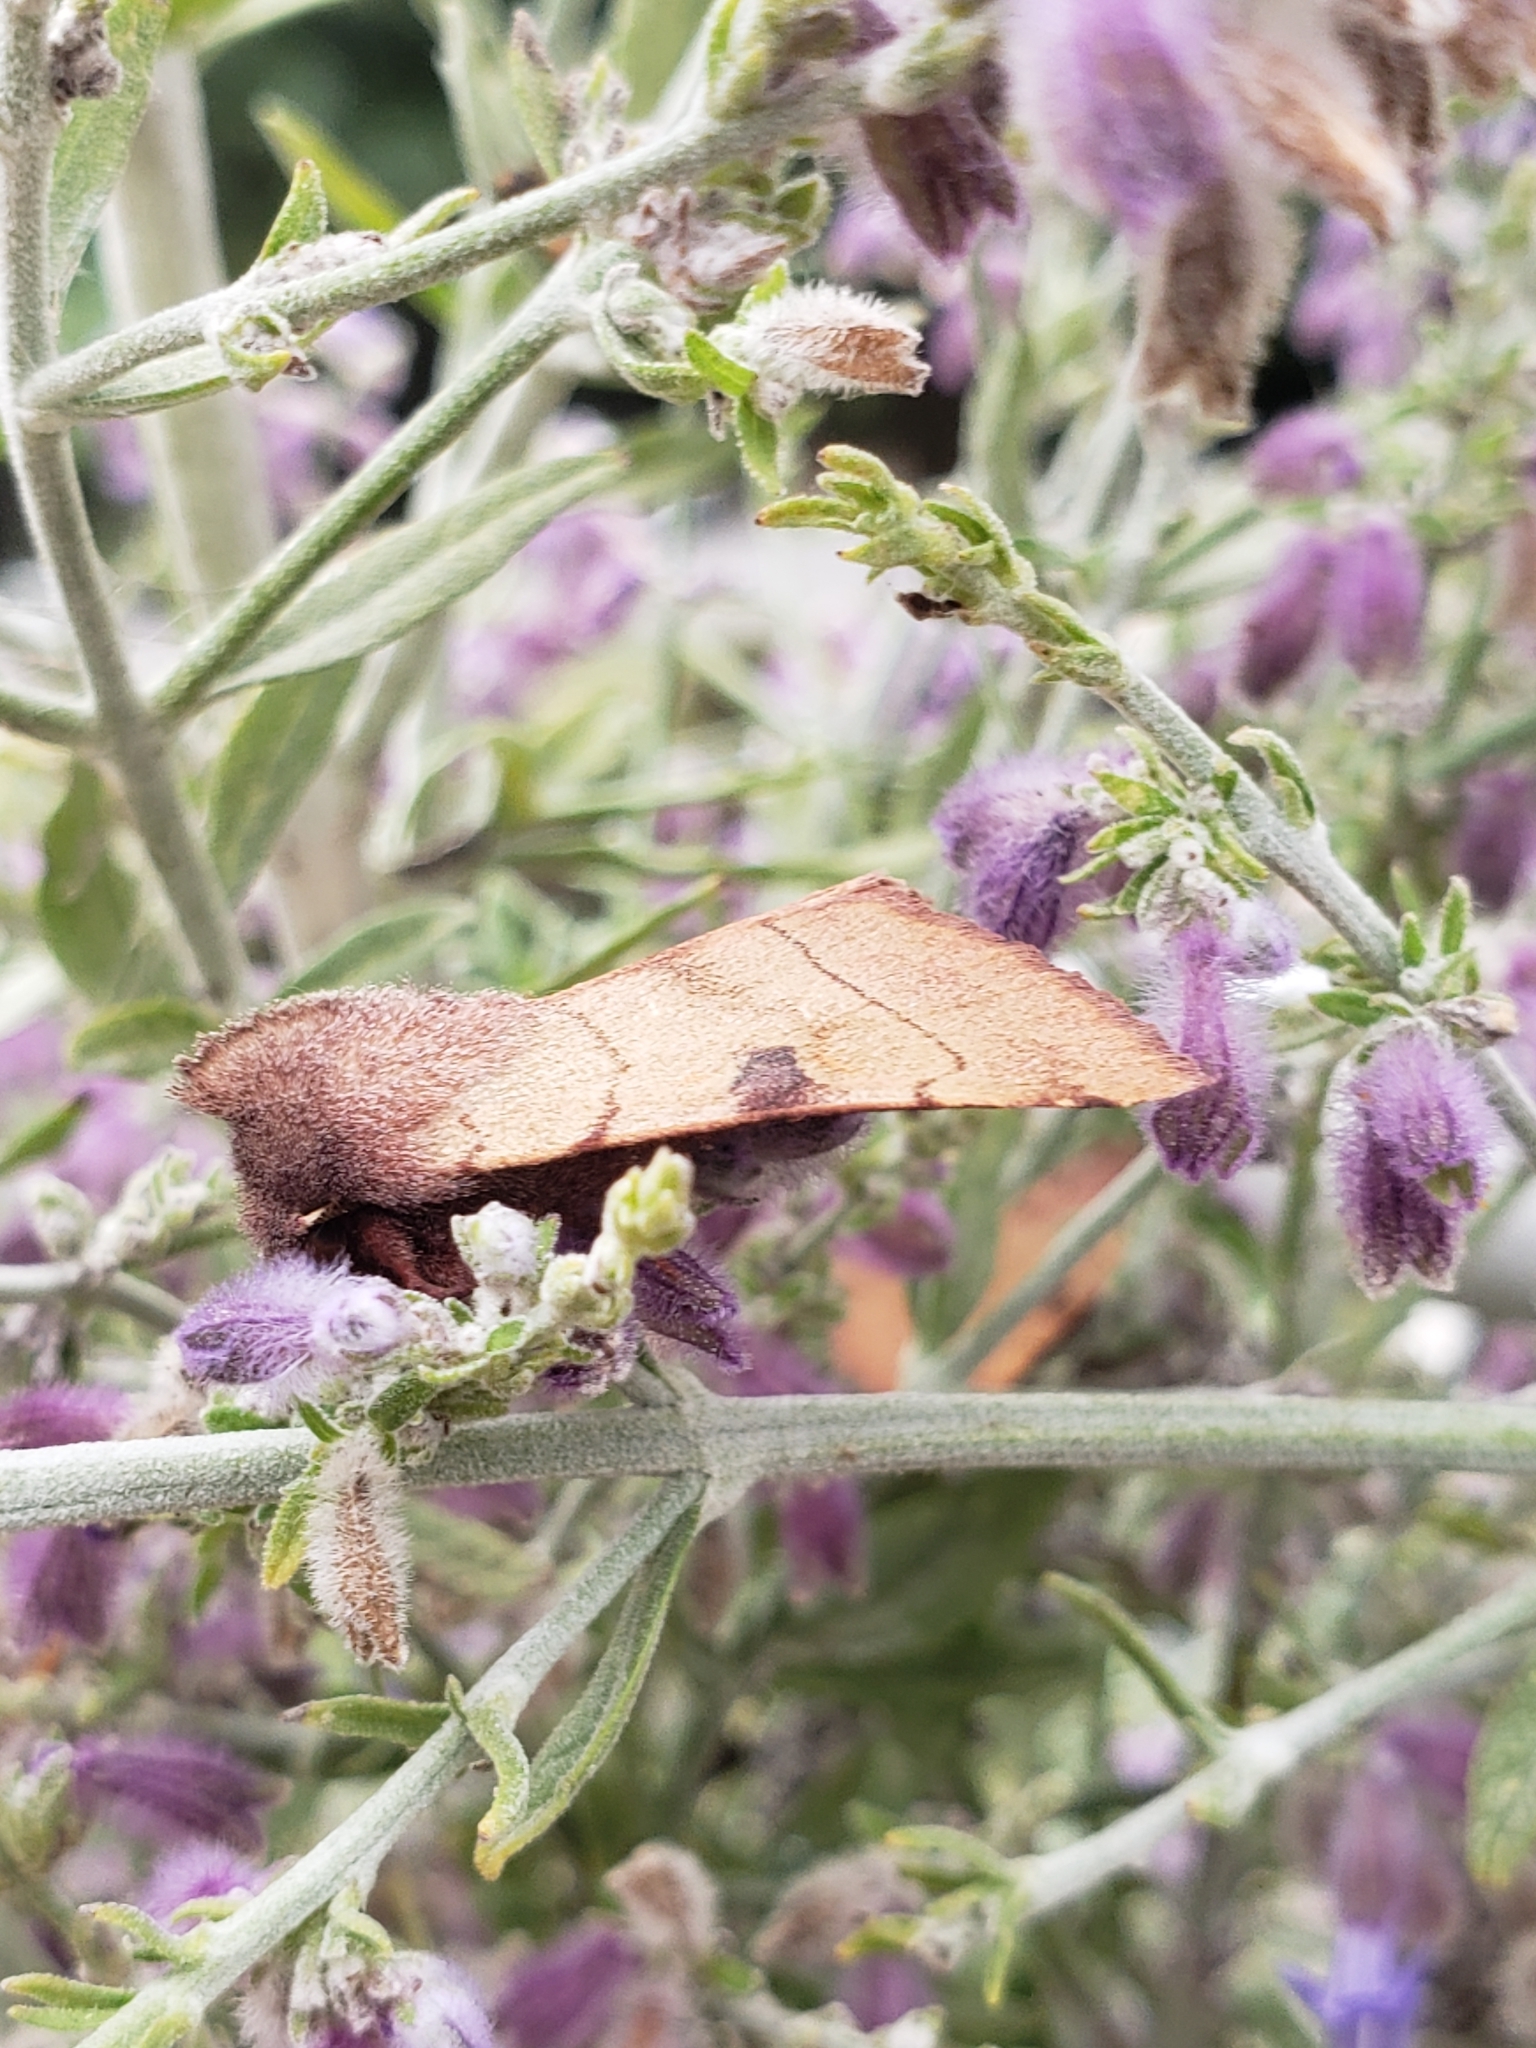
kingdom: Animalia
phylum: Arthropoda
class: Insecta
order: Lepidoptera
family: Noctuidae
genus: Choephora
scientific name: Choephora fungorum
